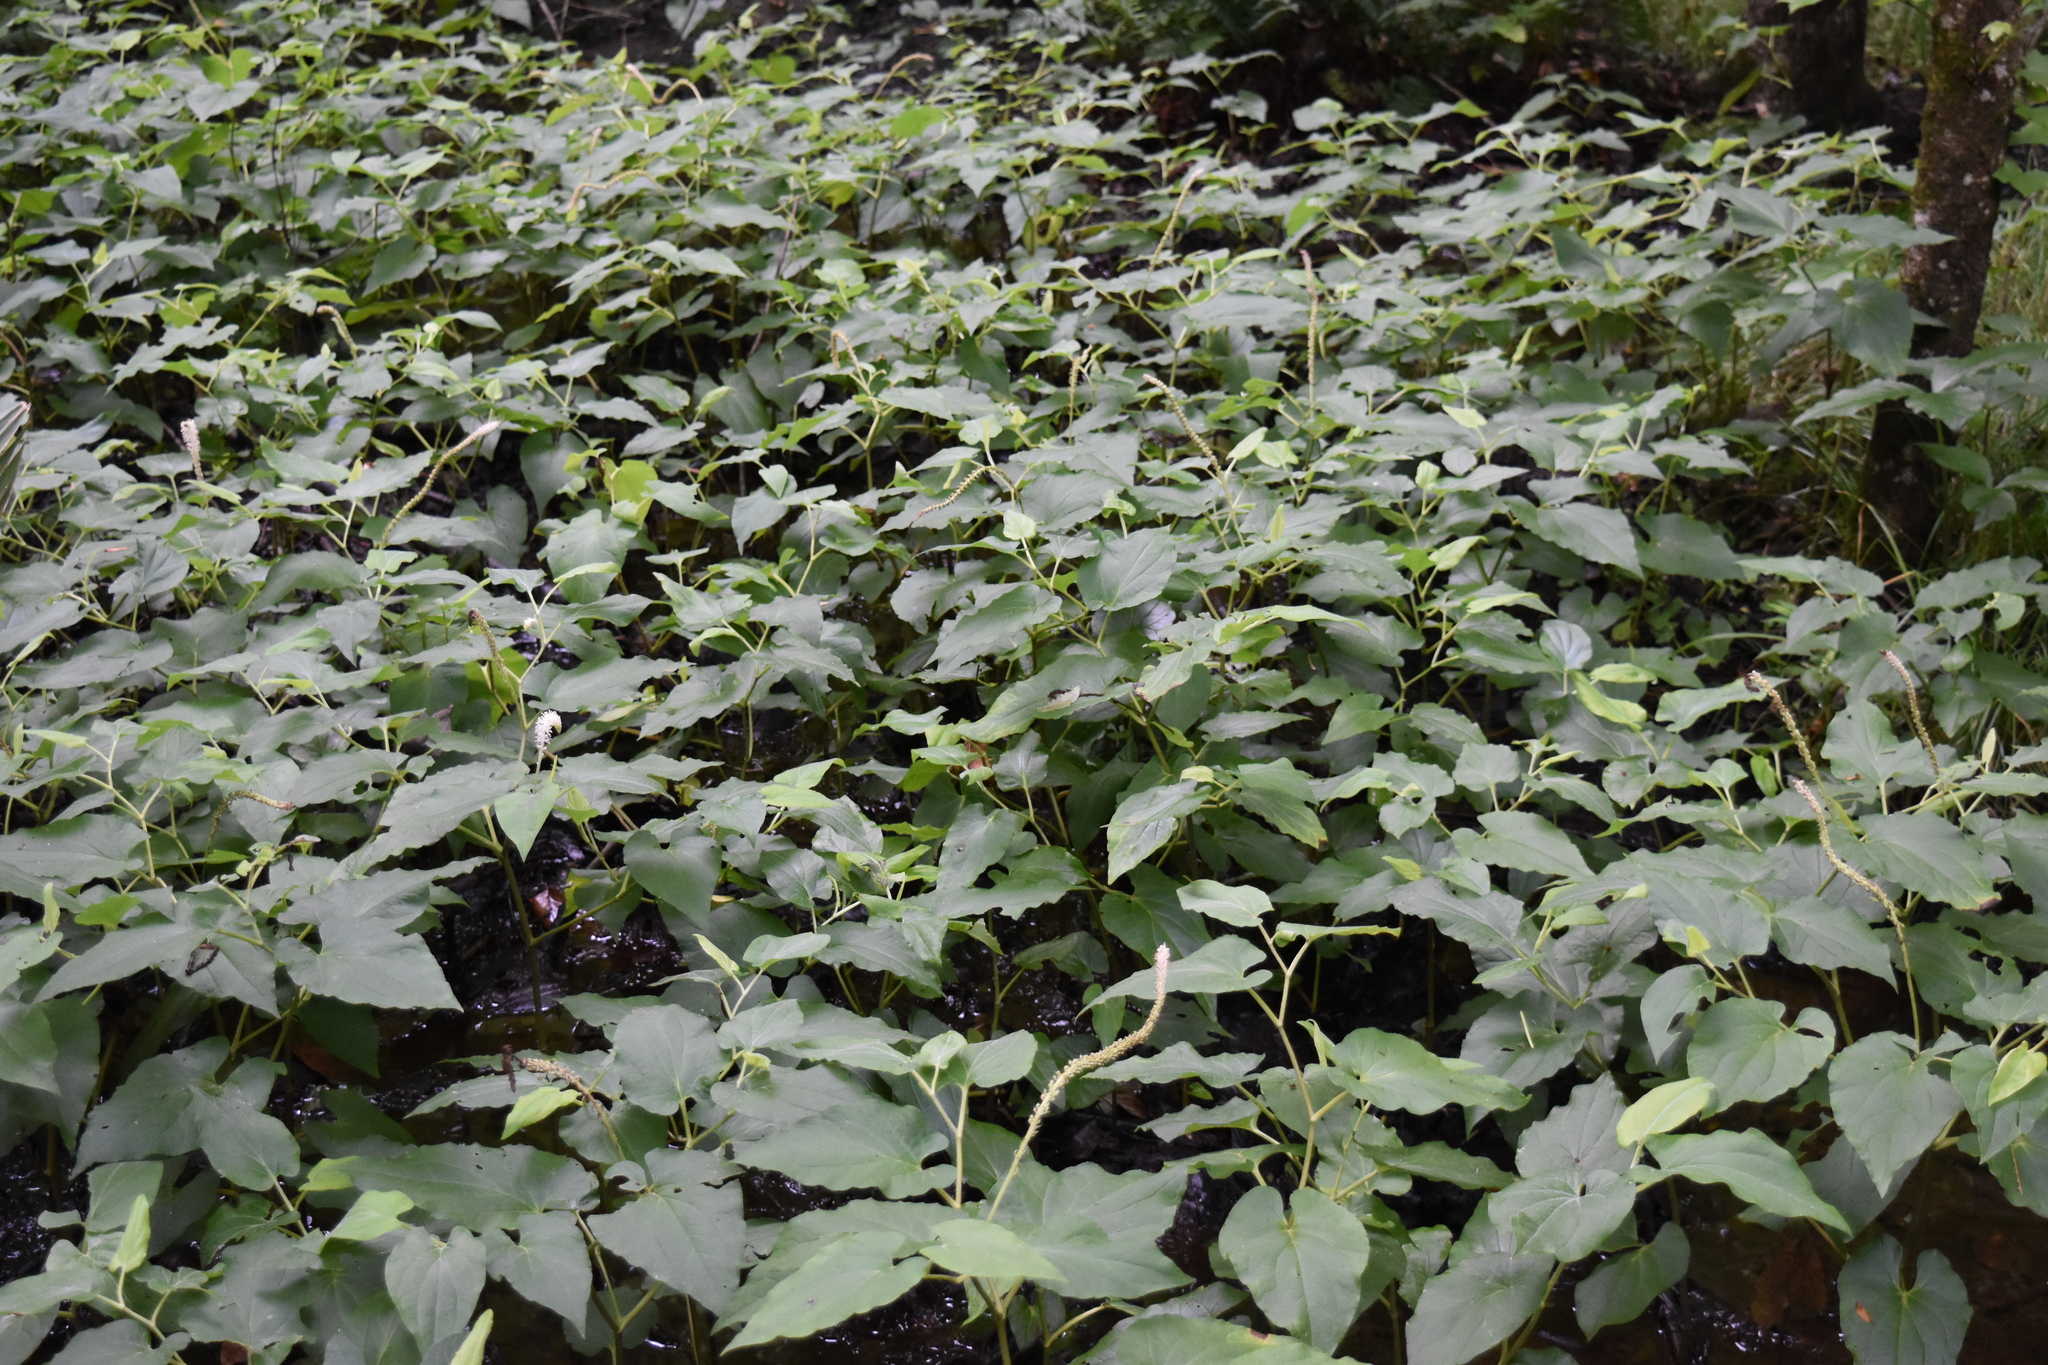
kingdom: Plantae
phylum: Tracheophyta
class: Magnoliopsida
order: Piperales
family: Saururaceae
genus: Saururus
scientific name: Saururus cernuus
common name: Lizard's-tail
